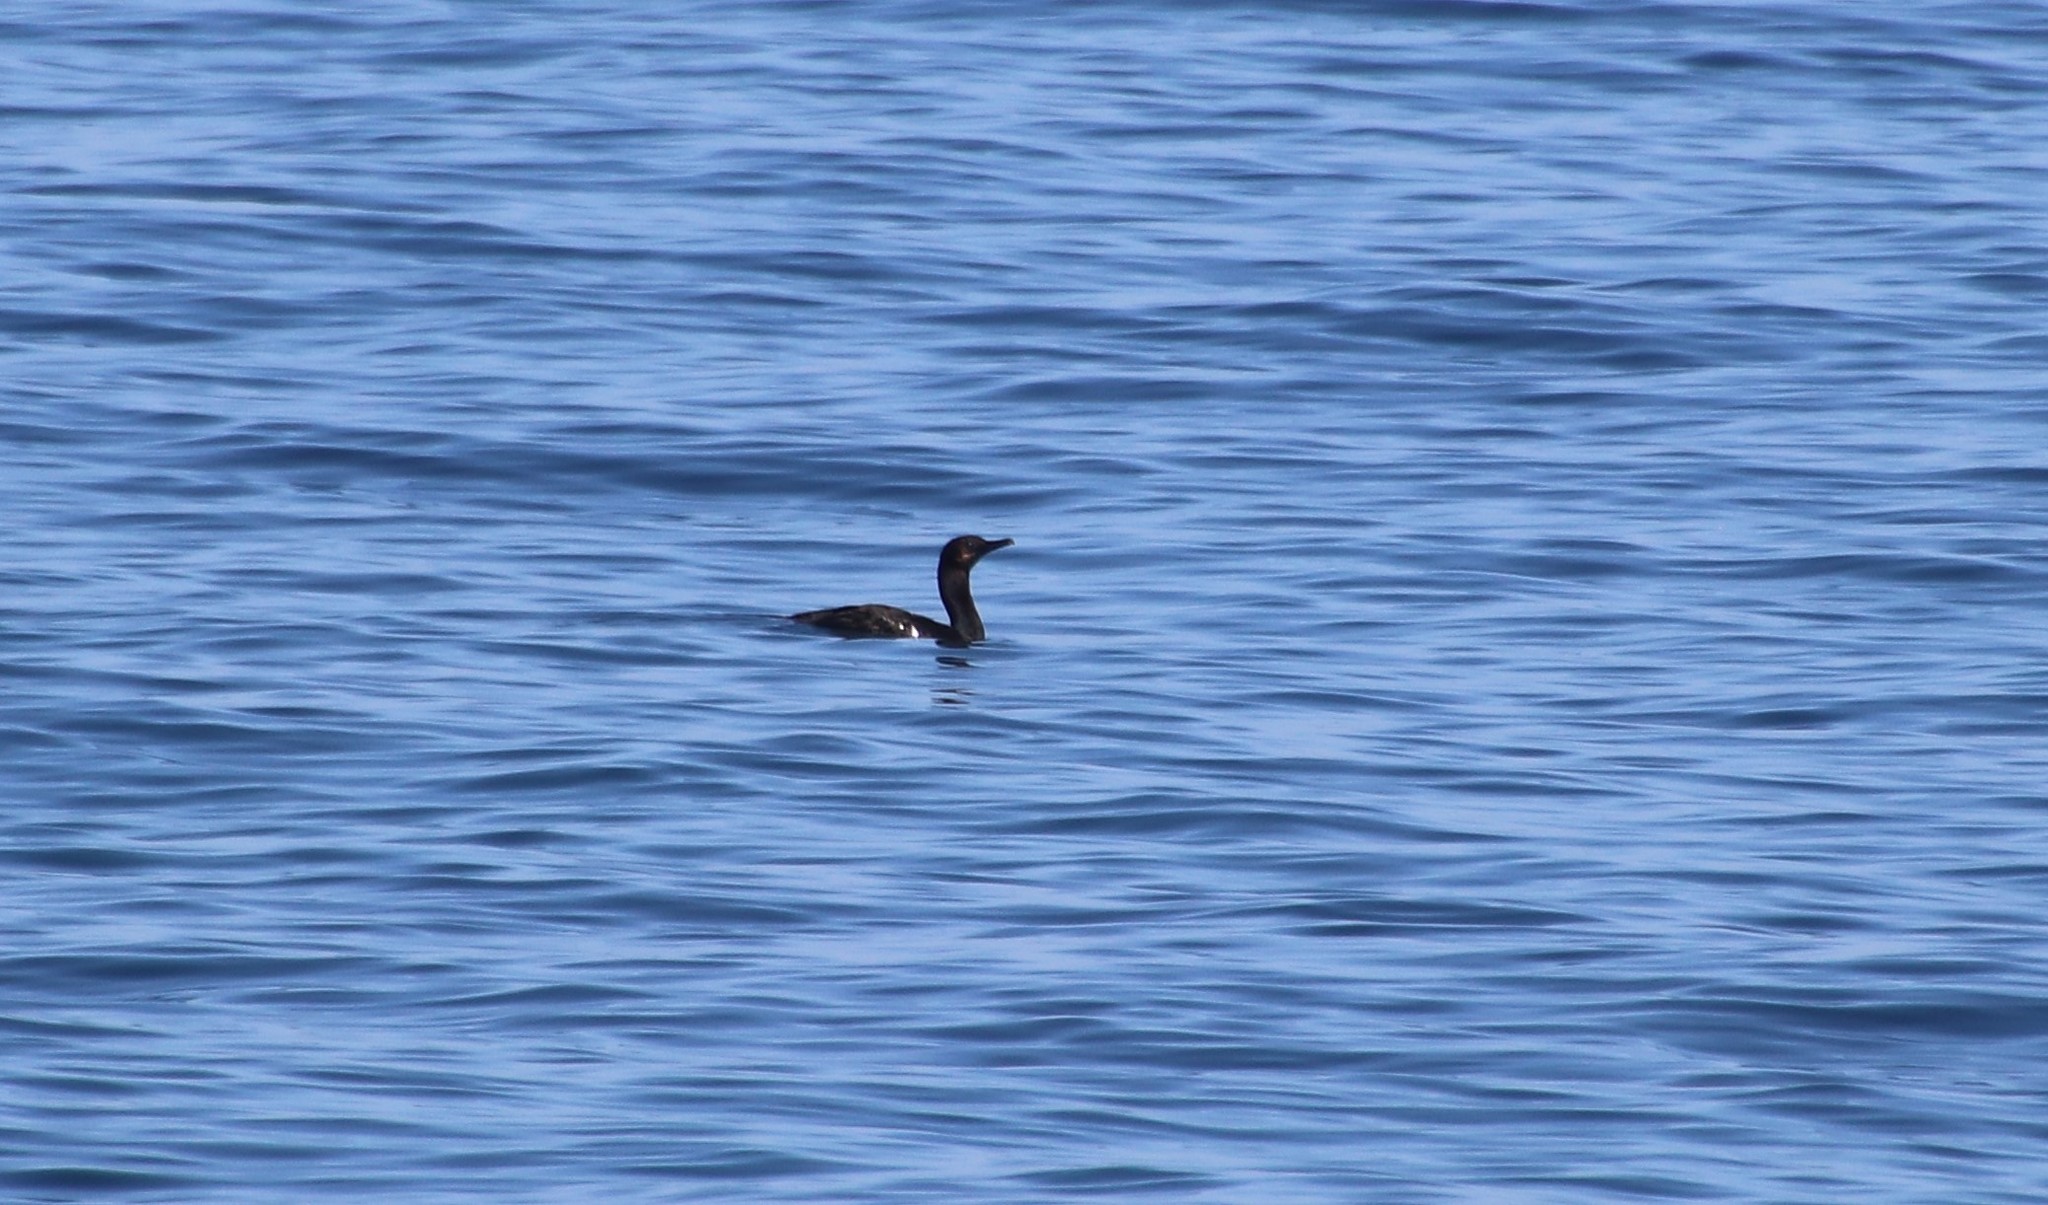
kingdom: Animalia
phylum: Chordata
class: Aves
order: Suliformes
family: Phalacrocoracidae
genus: Urile
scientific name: Urile penicillatus
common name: Brandt's cormorant
